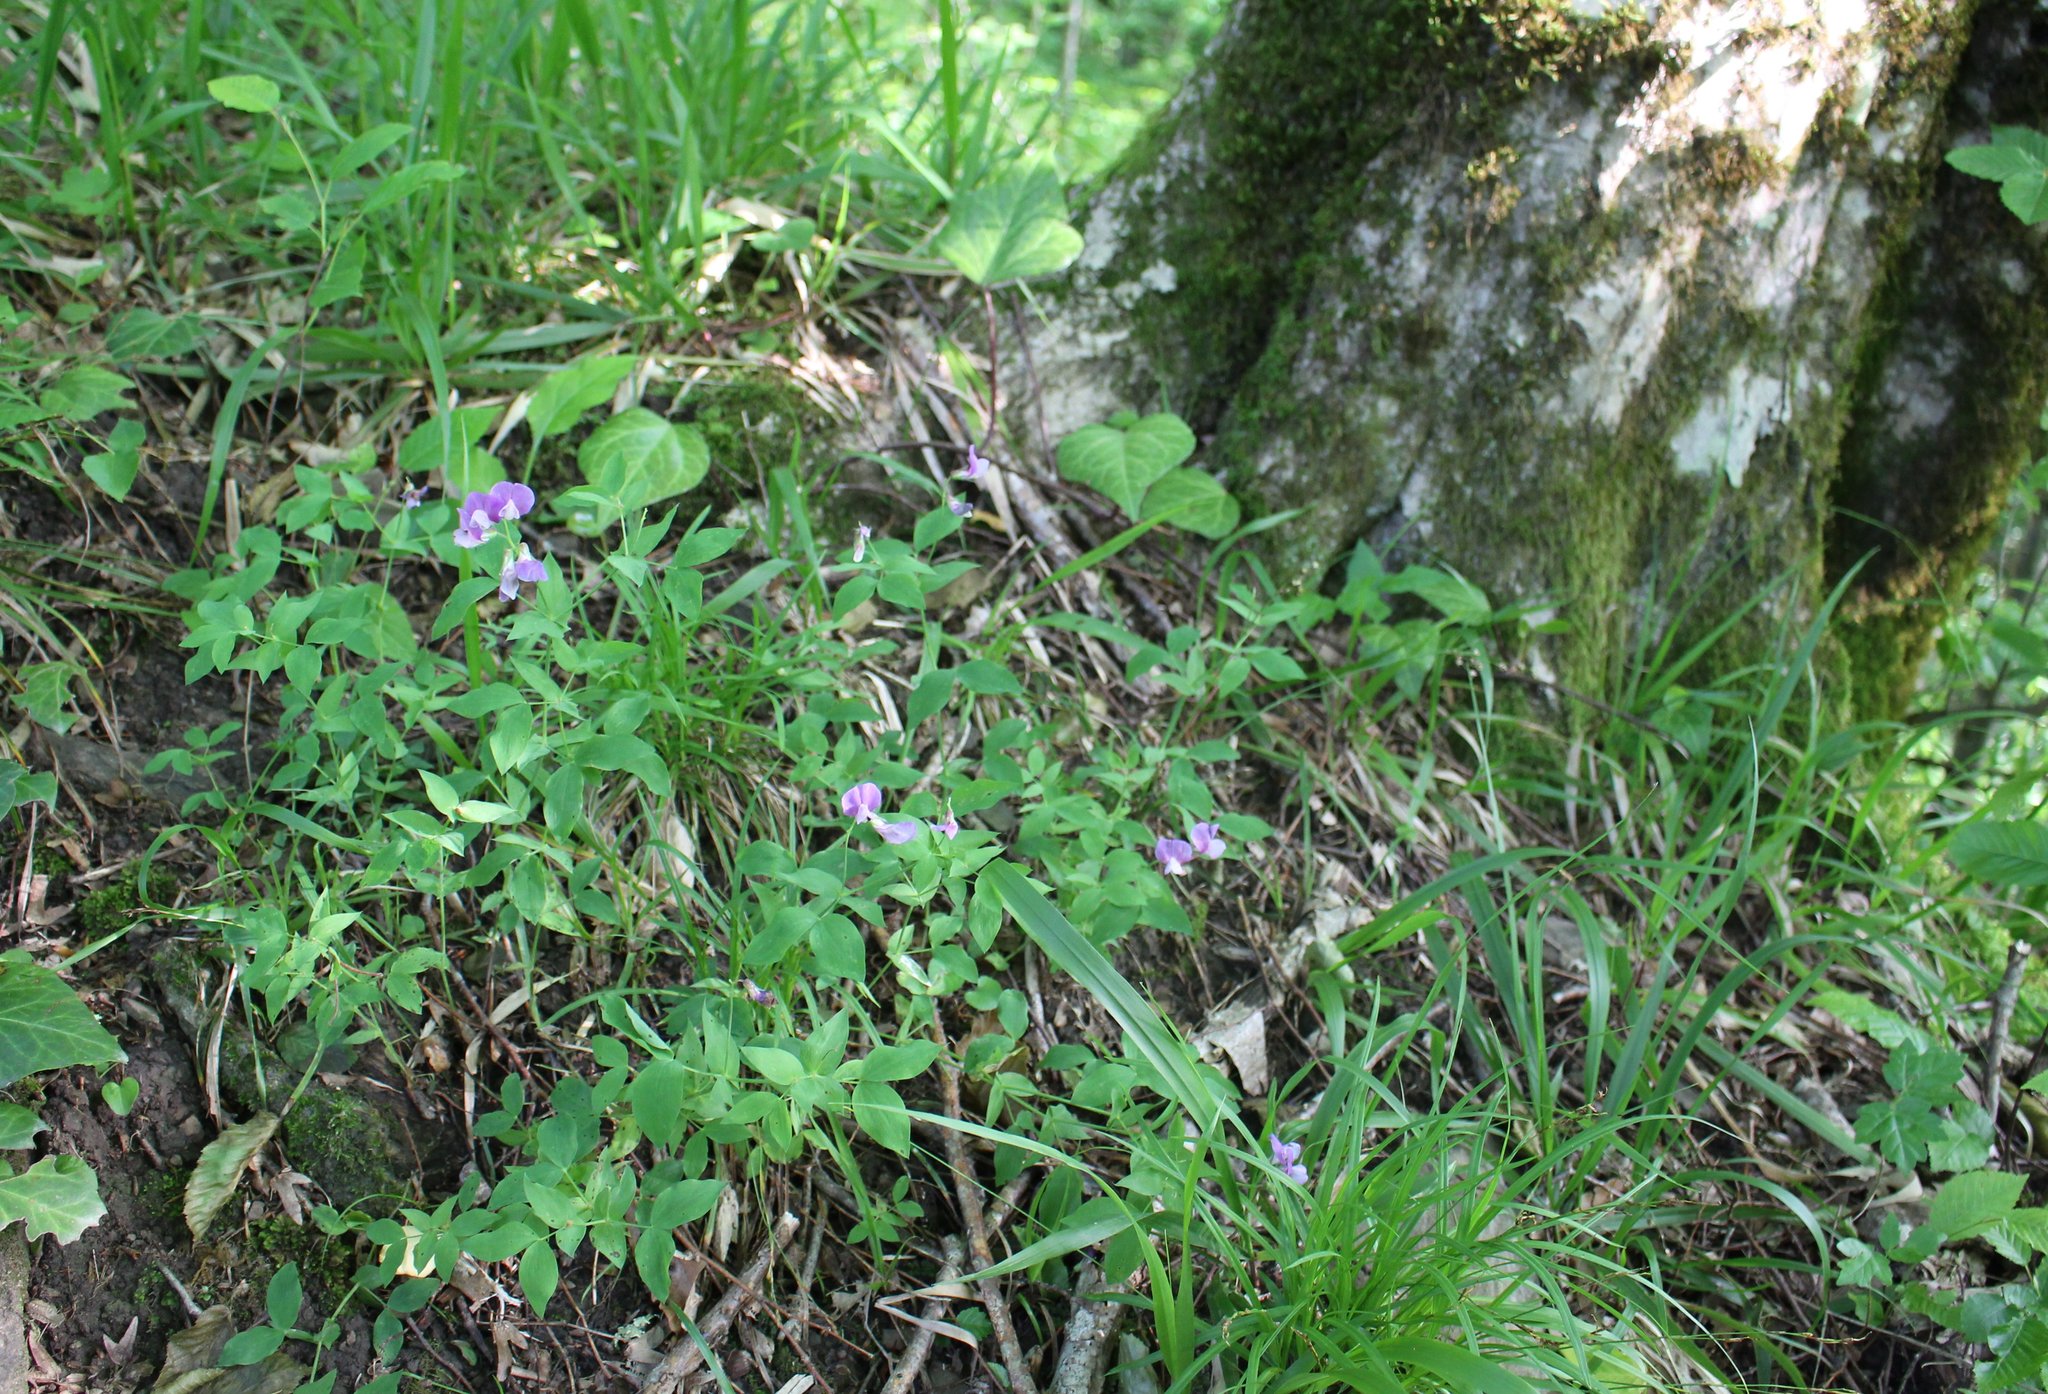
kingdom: Plantae
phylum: Tracheophyta
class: Magnoliopsida
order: Fabales
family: Fabaceae
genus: Lathyrus
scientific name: Lathyrus laxiflorus
